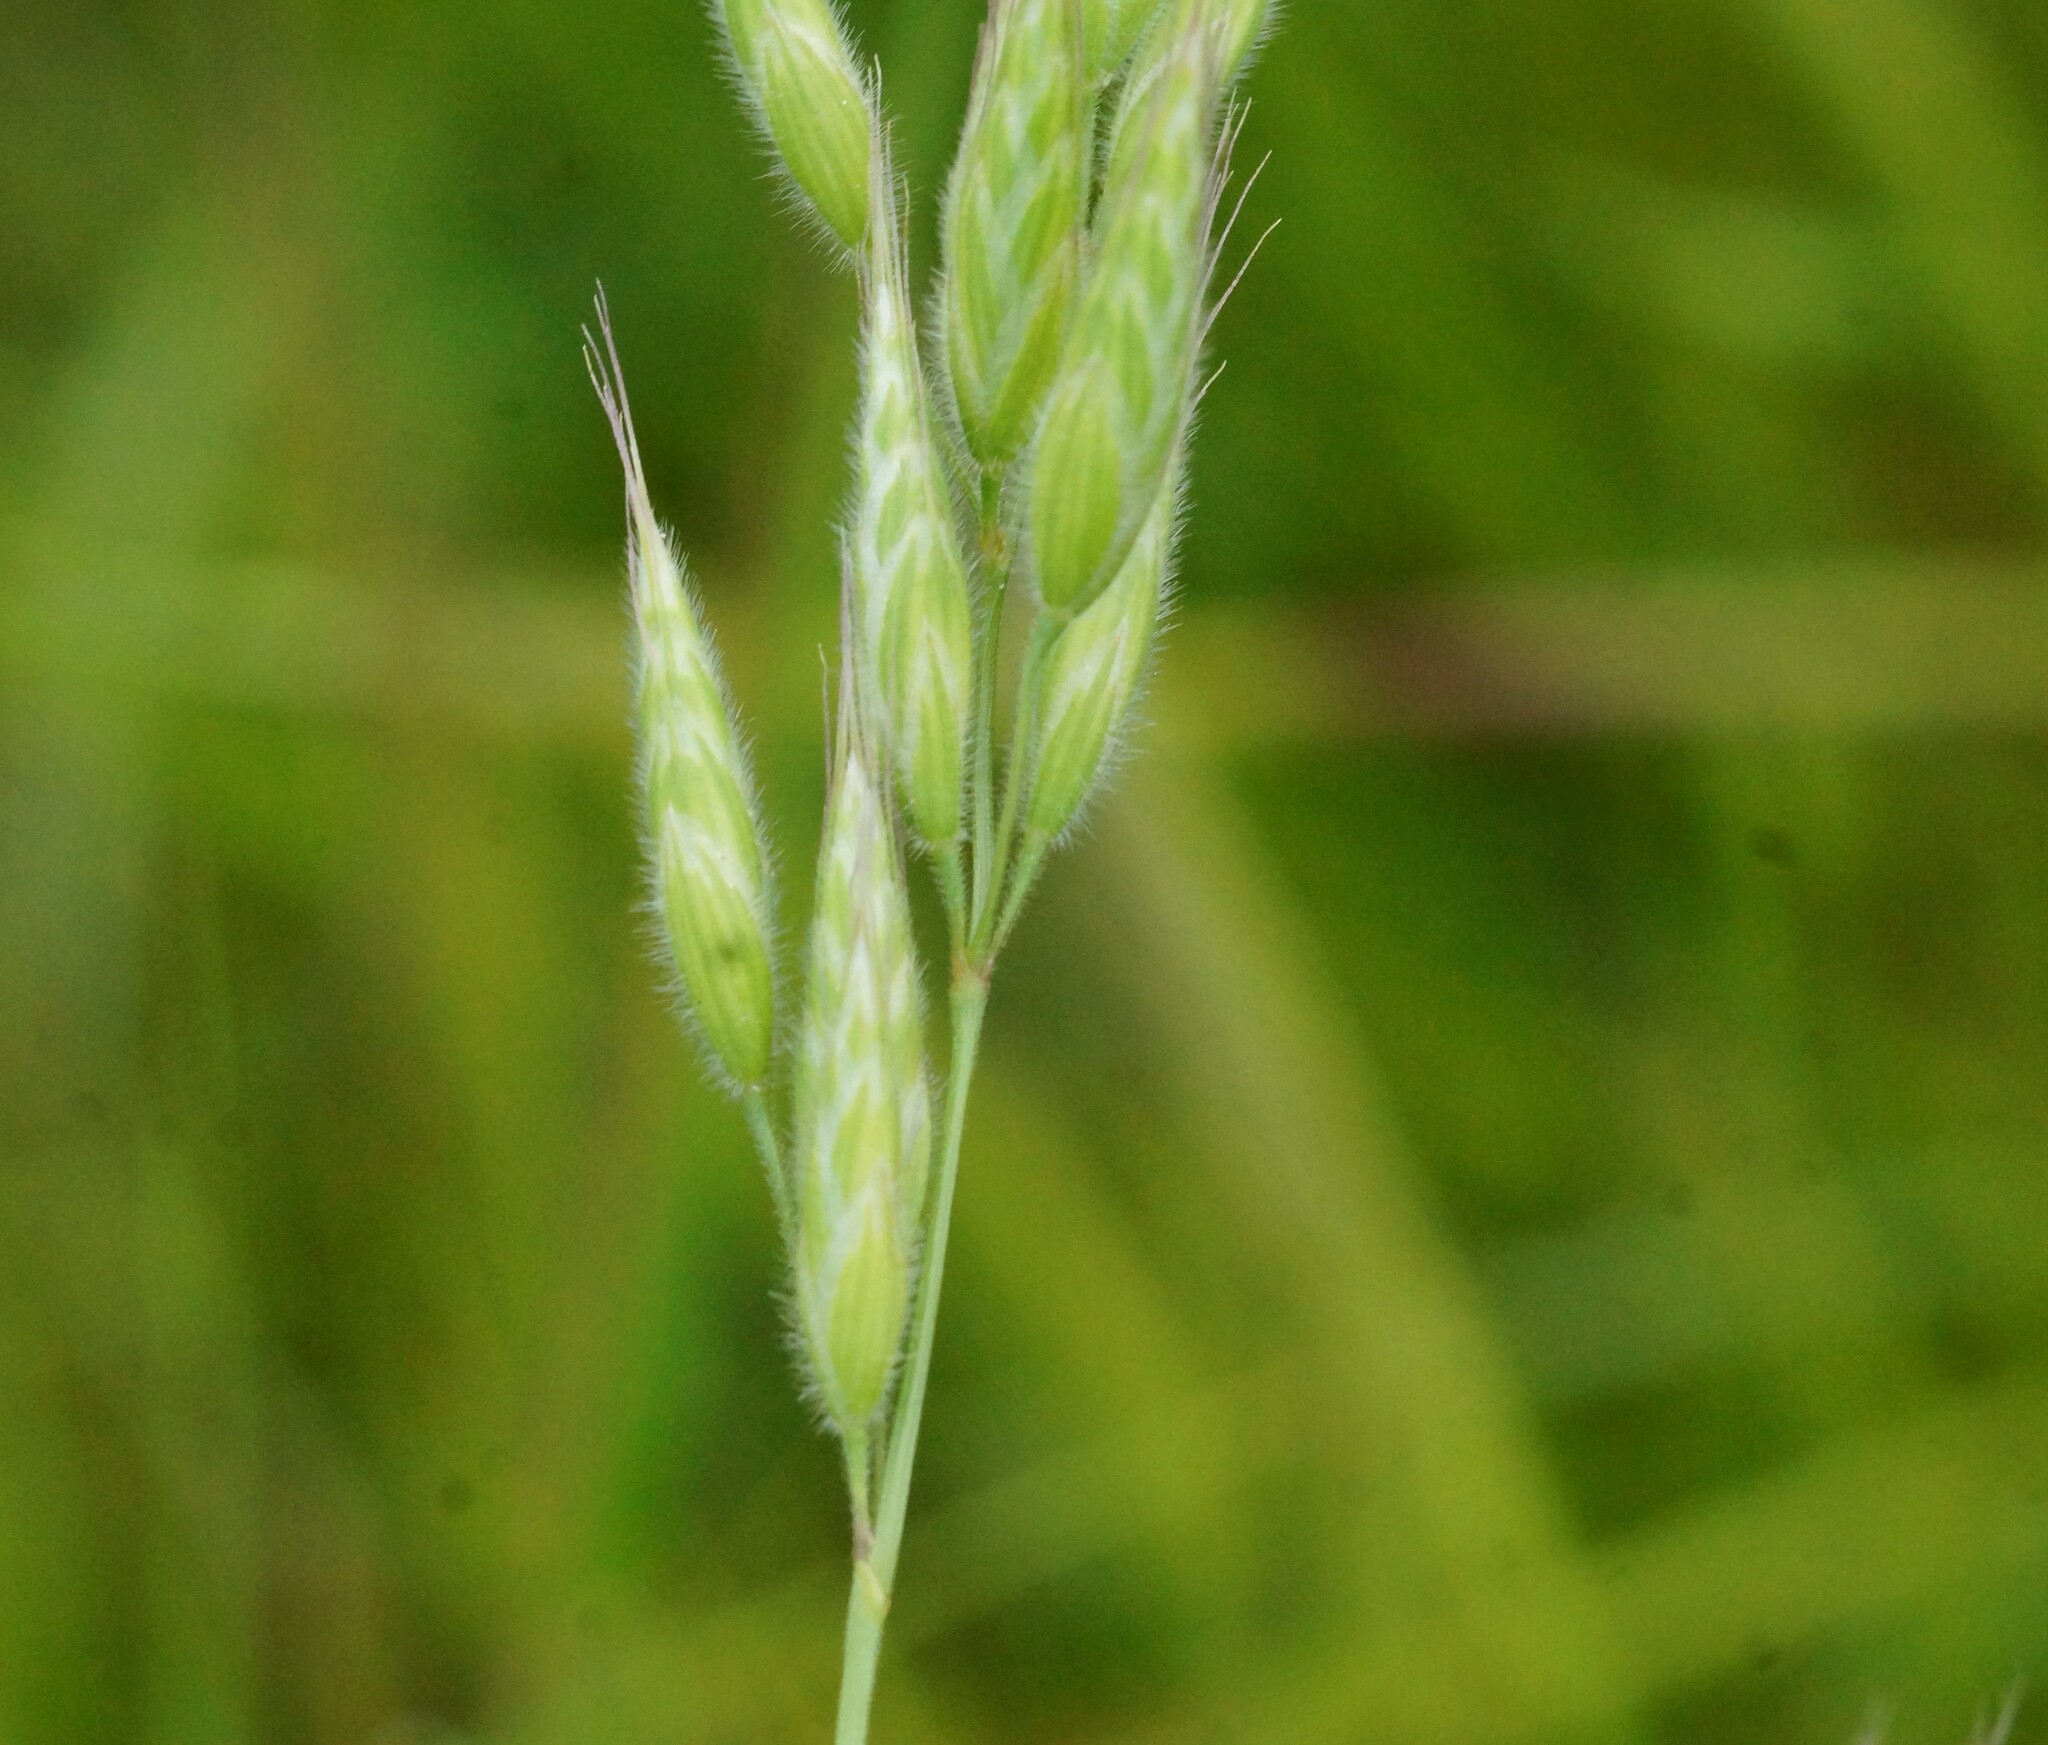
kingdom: Plantae
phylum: Tracheophyta
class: Liliopsida
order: Poales
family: Poaceae
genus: Bromus
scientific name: Bromus hordeaceus
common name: Soft brome
